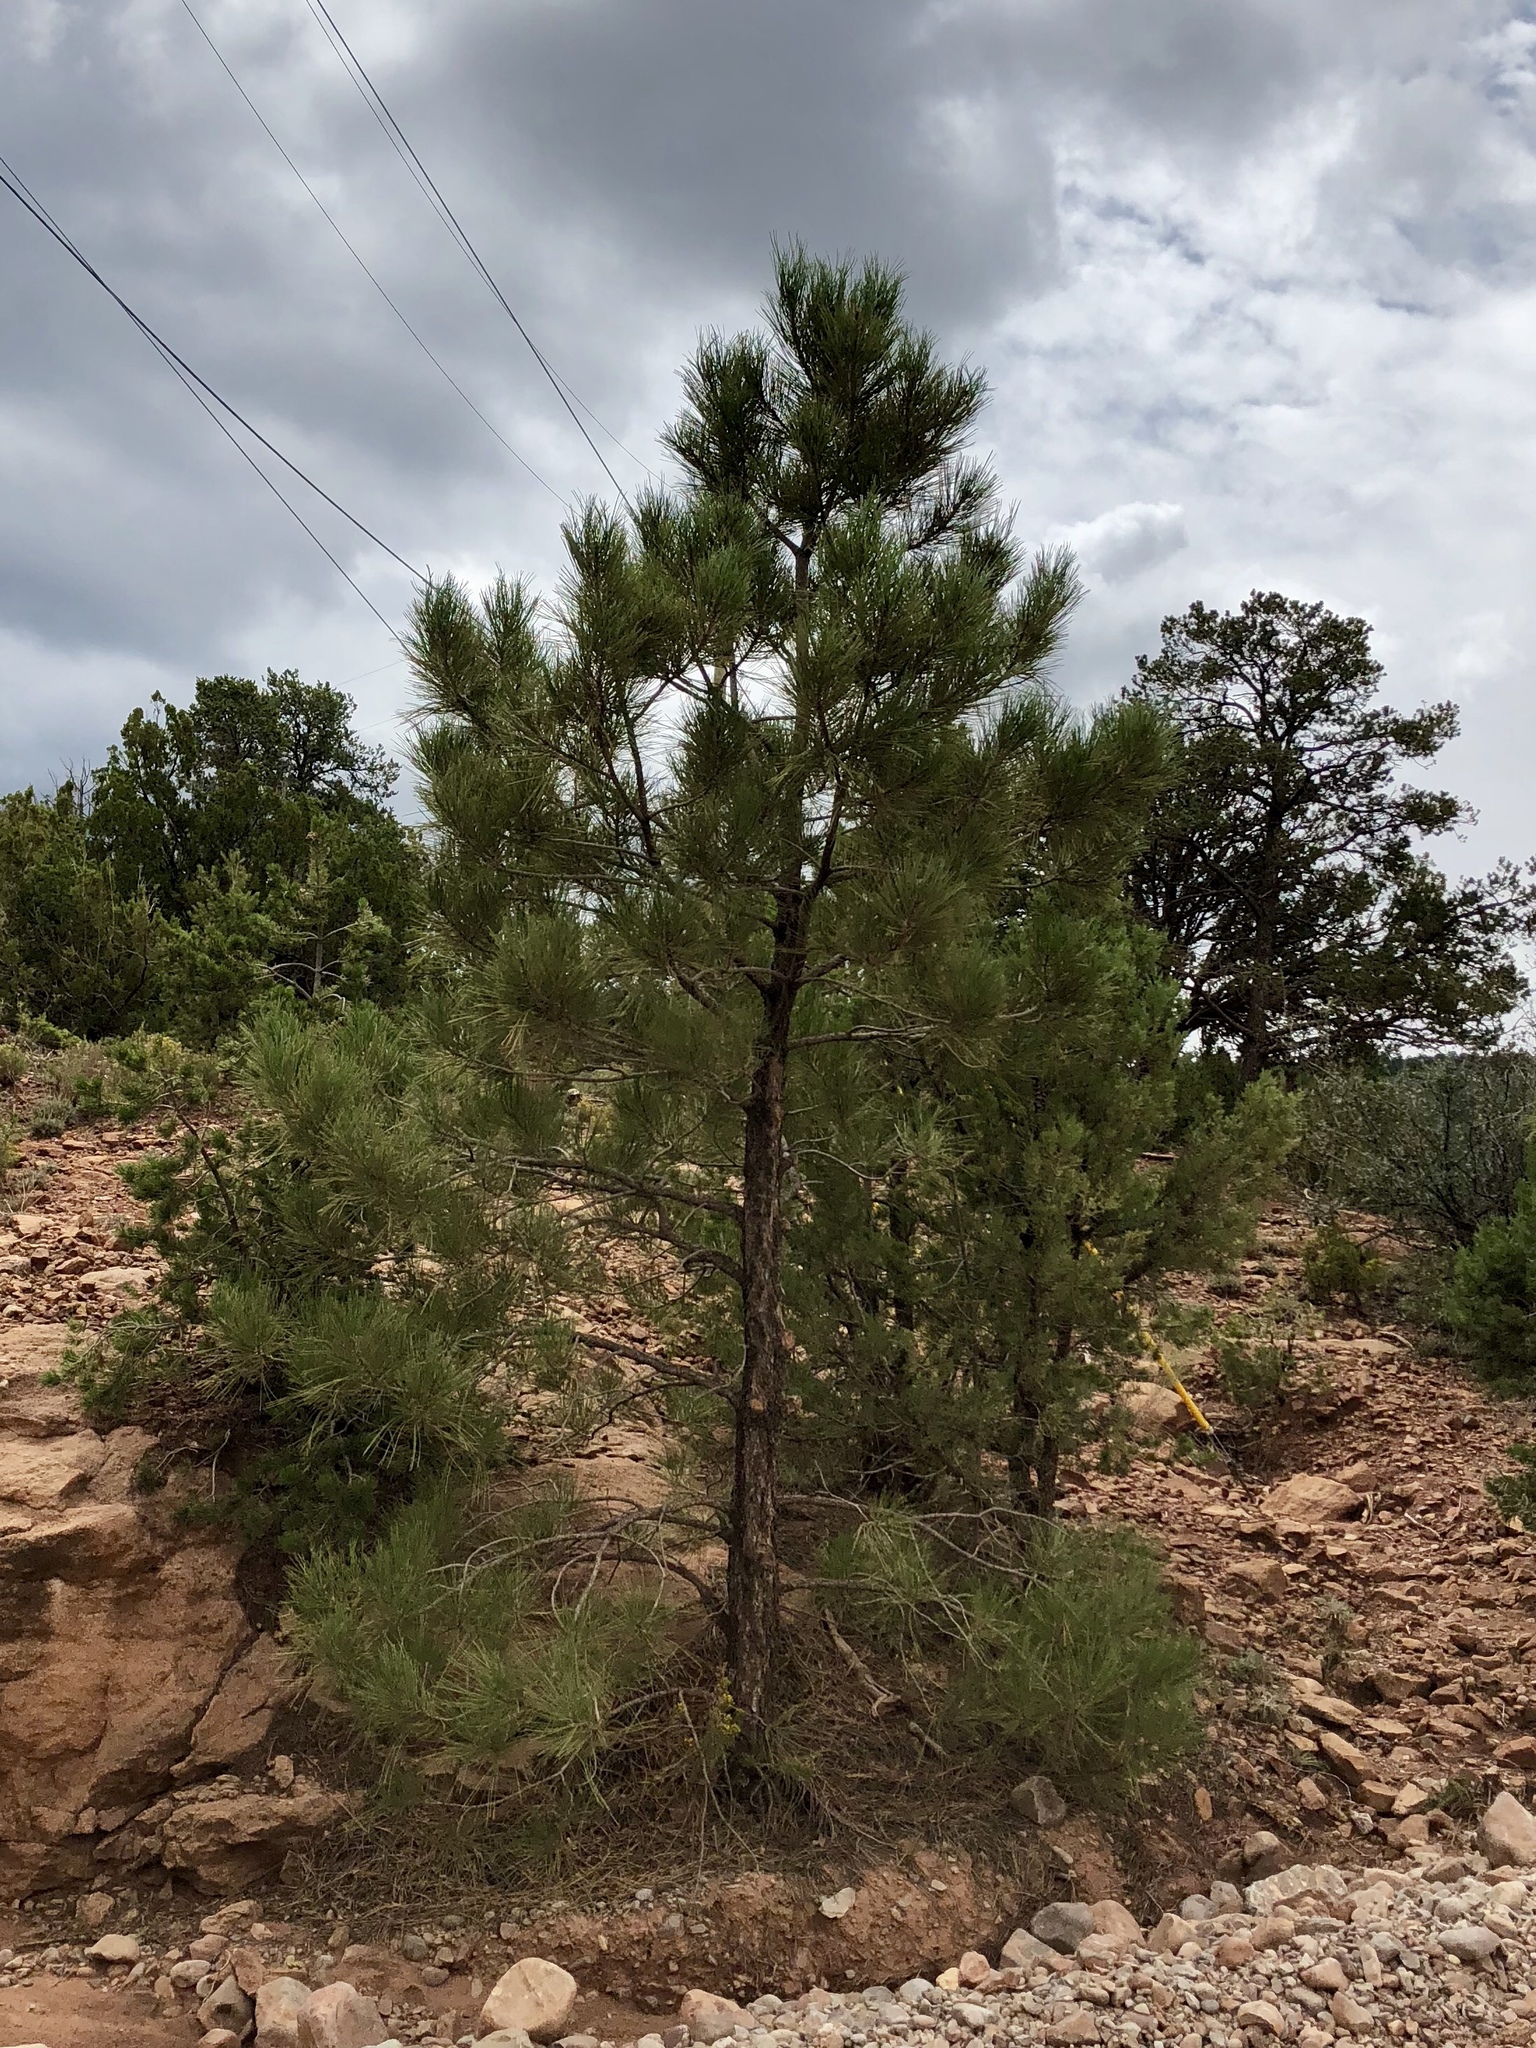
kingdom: Plantae
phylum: Tracheophyta
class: Pinopsida
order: Pinales
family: Pinaceae
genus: Pinus
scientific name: Pinus ponderosa
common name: Western yellow-pine
